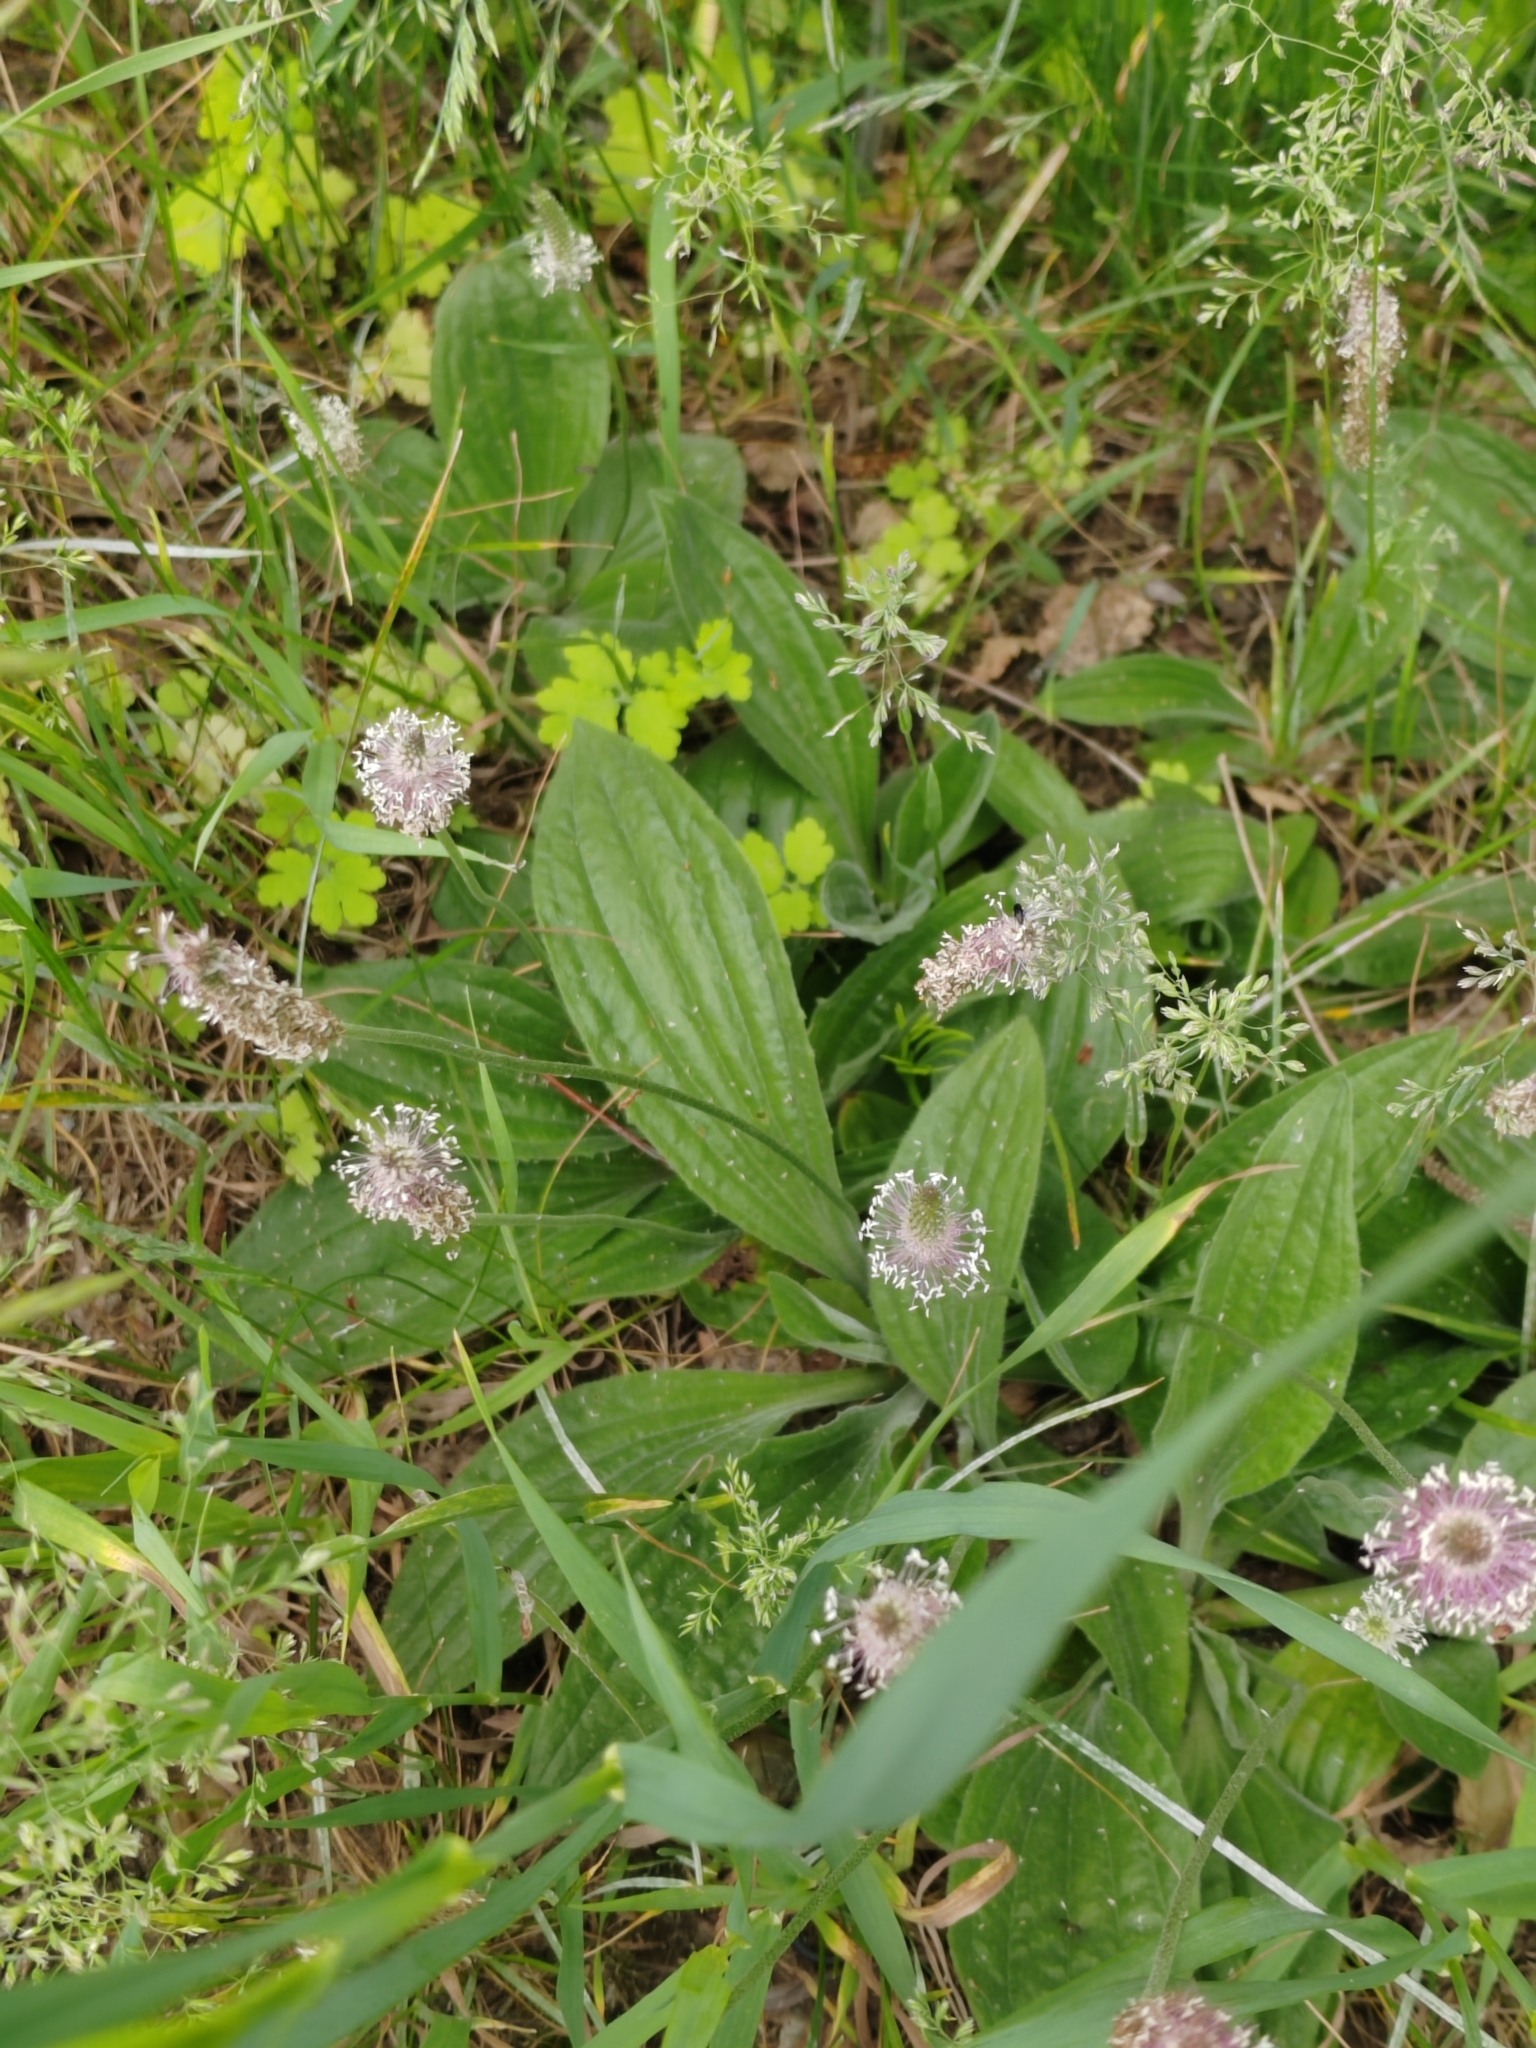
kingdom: Plantae
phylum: Tracheophyta
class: Magnoliopsida
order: Lamiales
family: Plantaginaceae
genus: Plantago
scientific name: Plantago urvillei
